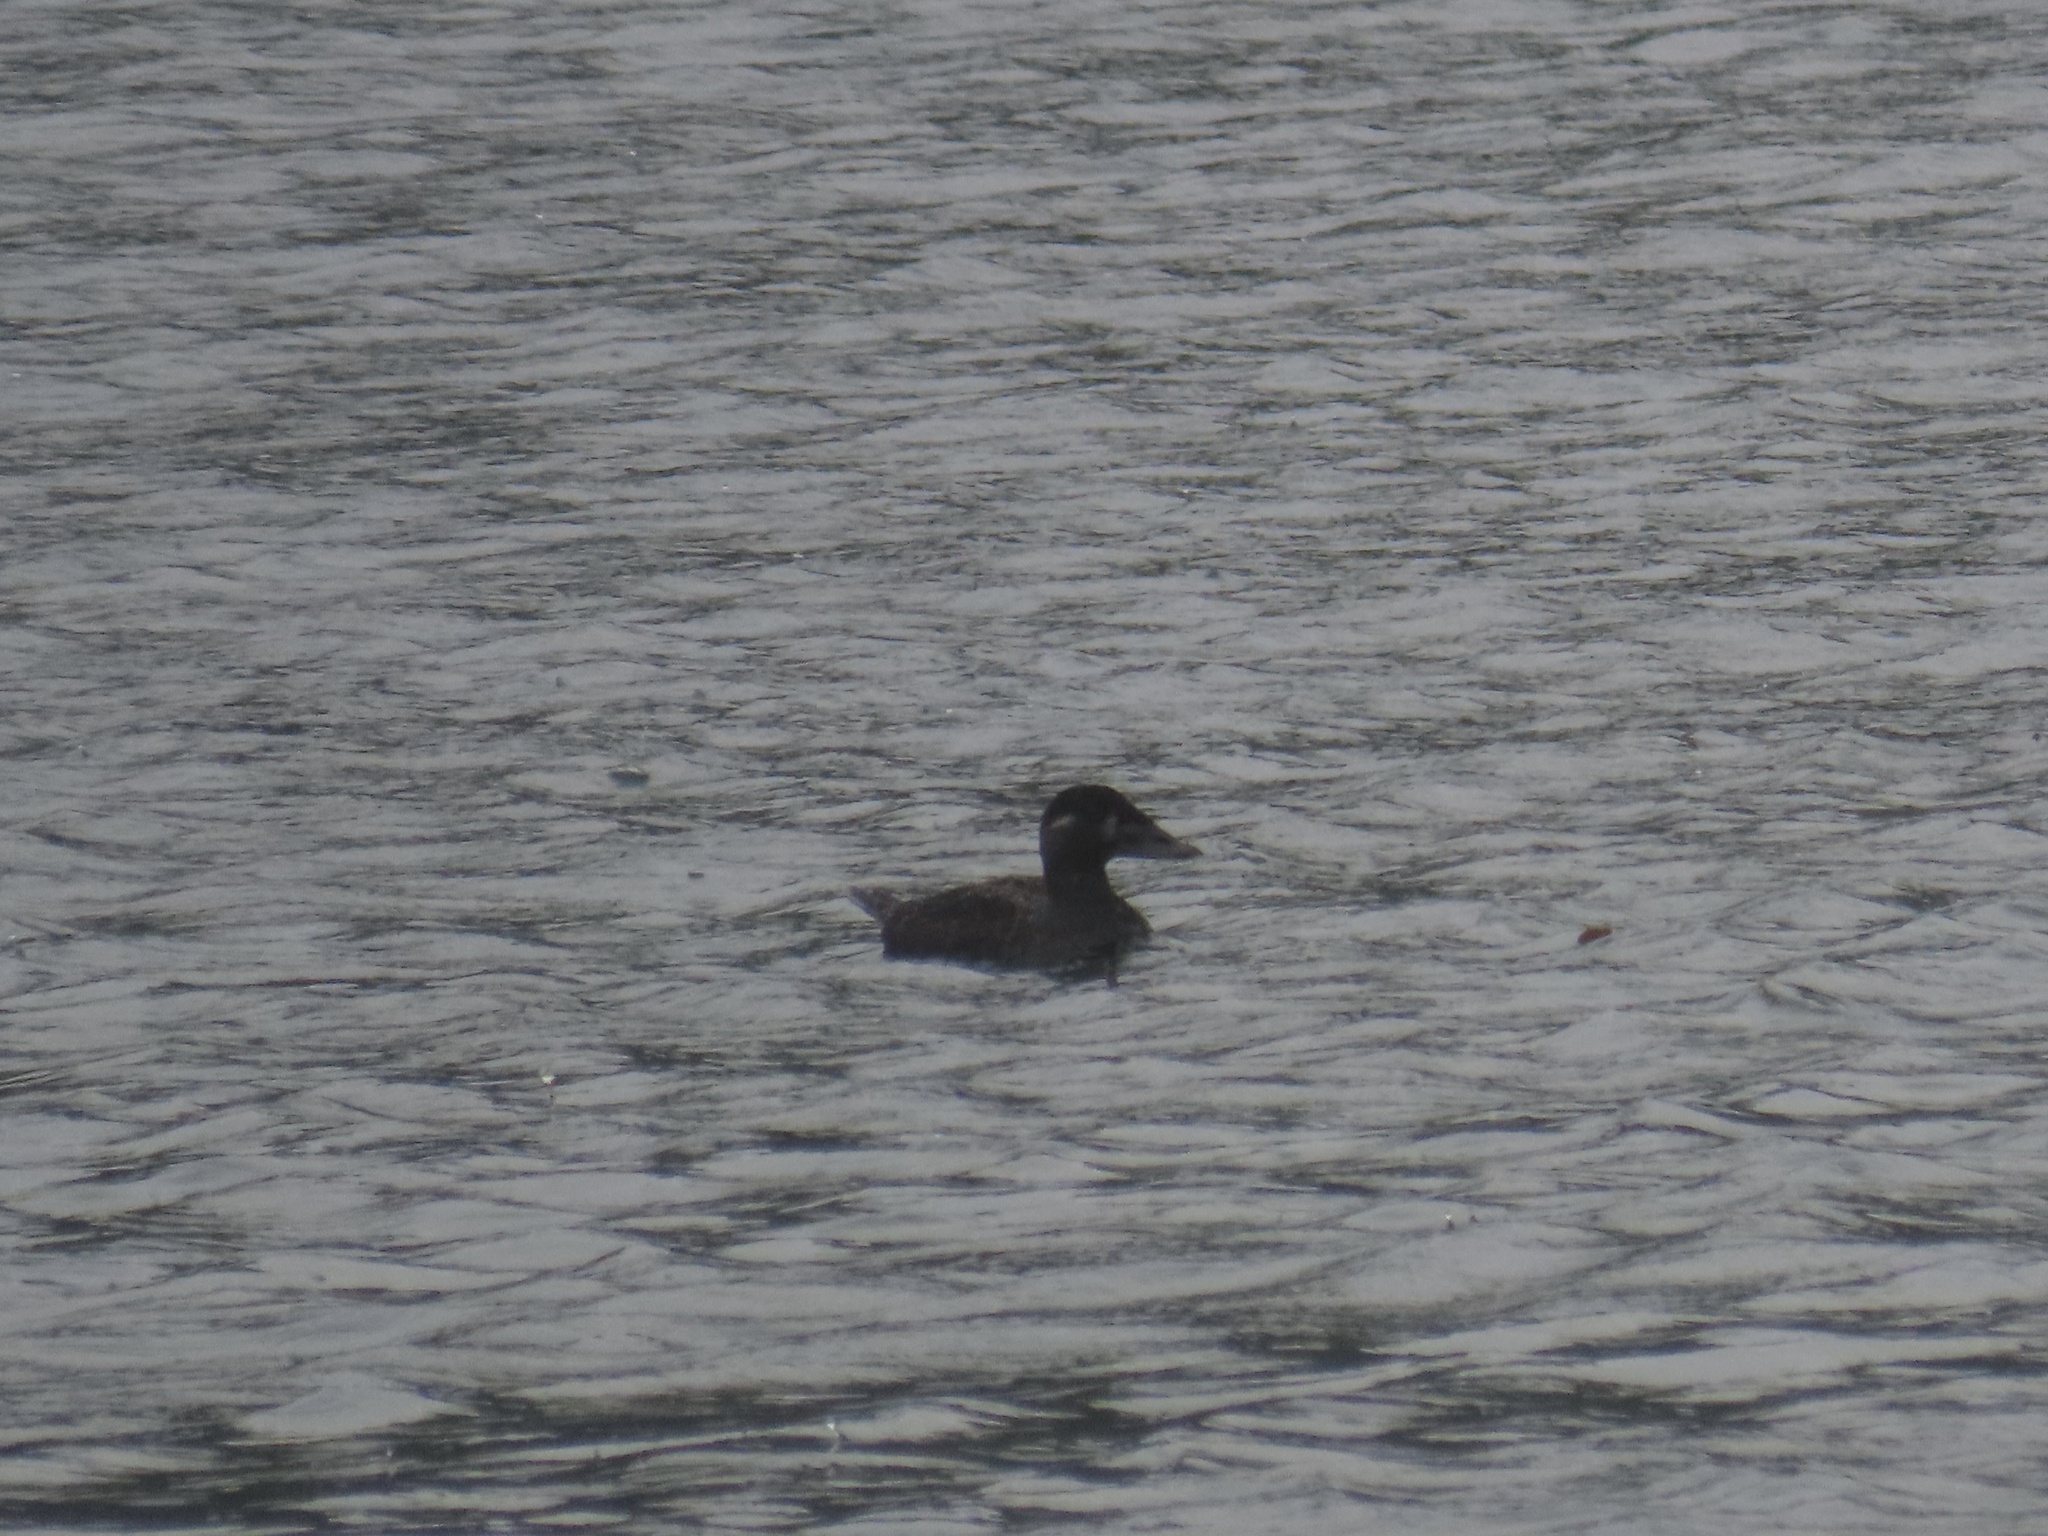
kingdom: Animalia
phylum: Chordata
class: Aves
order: Anseriformes
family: Anatidae
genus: Melanitta
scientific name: Melanitta perspicillata
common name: Surf scoter
